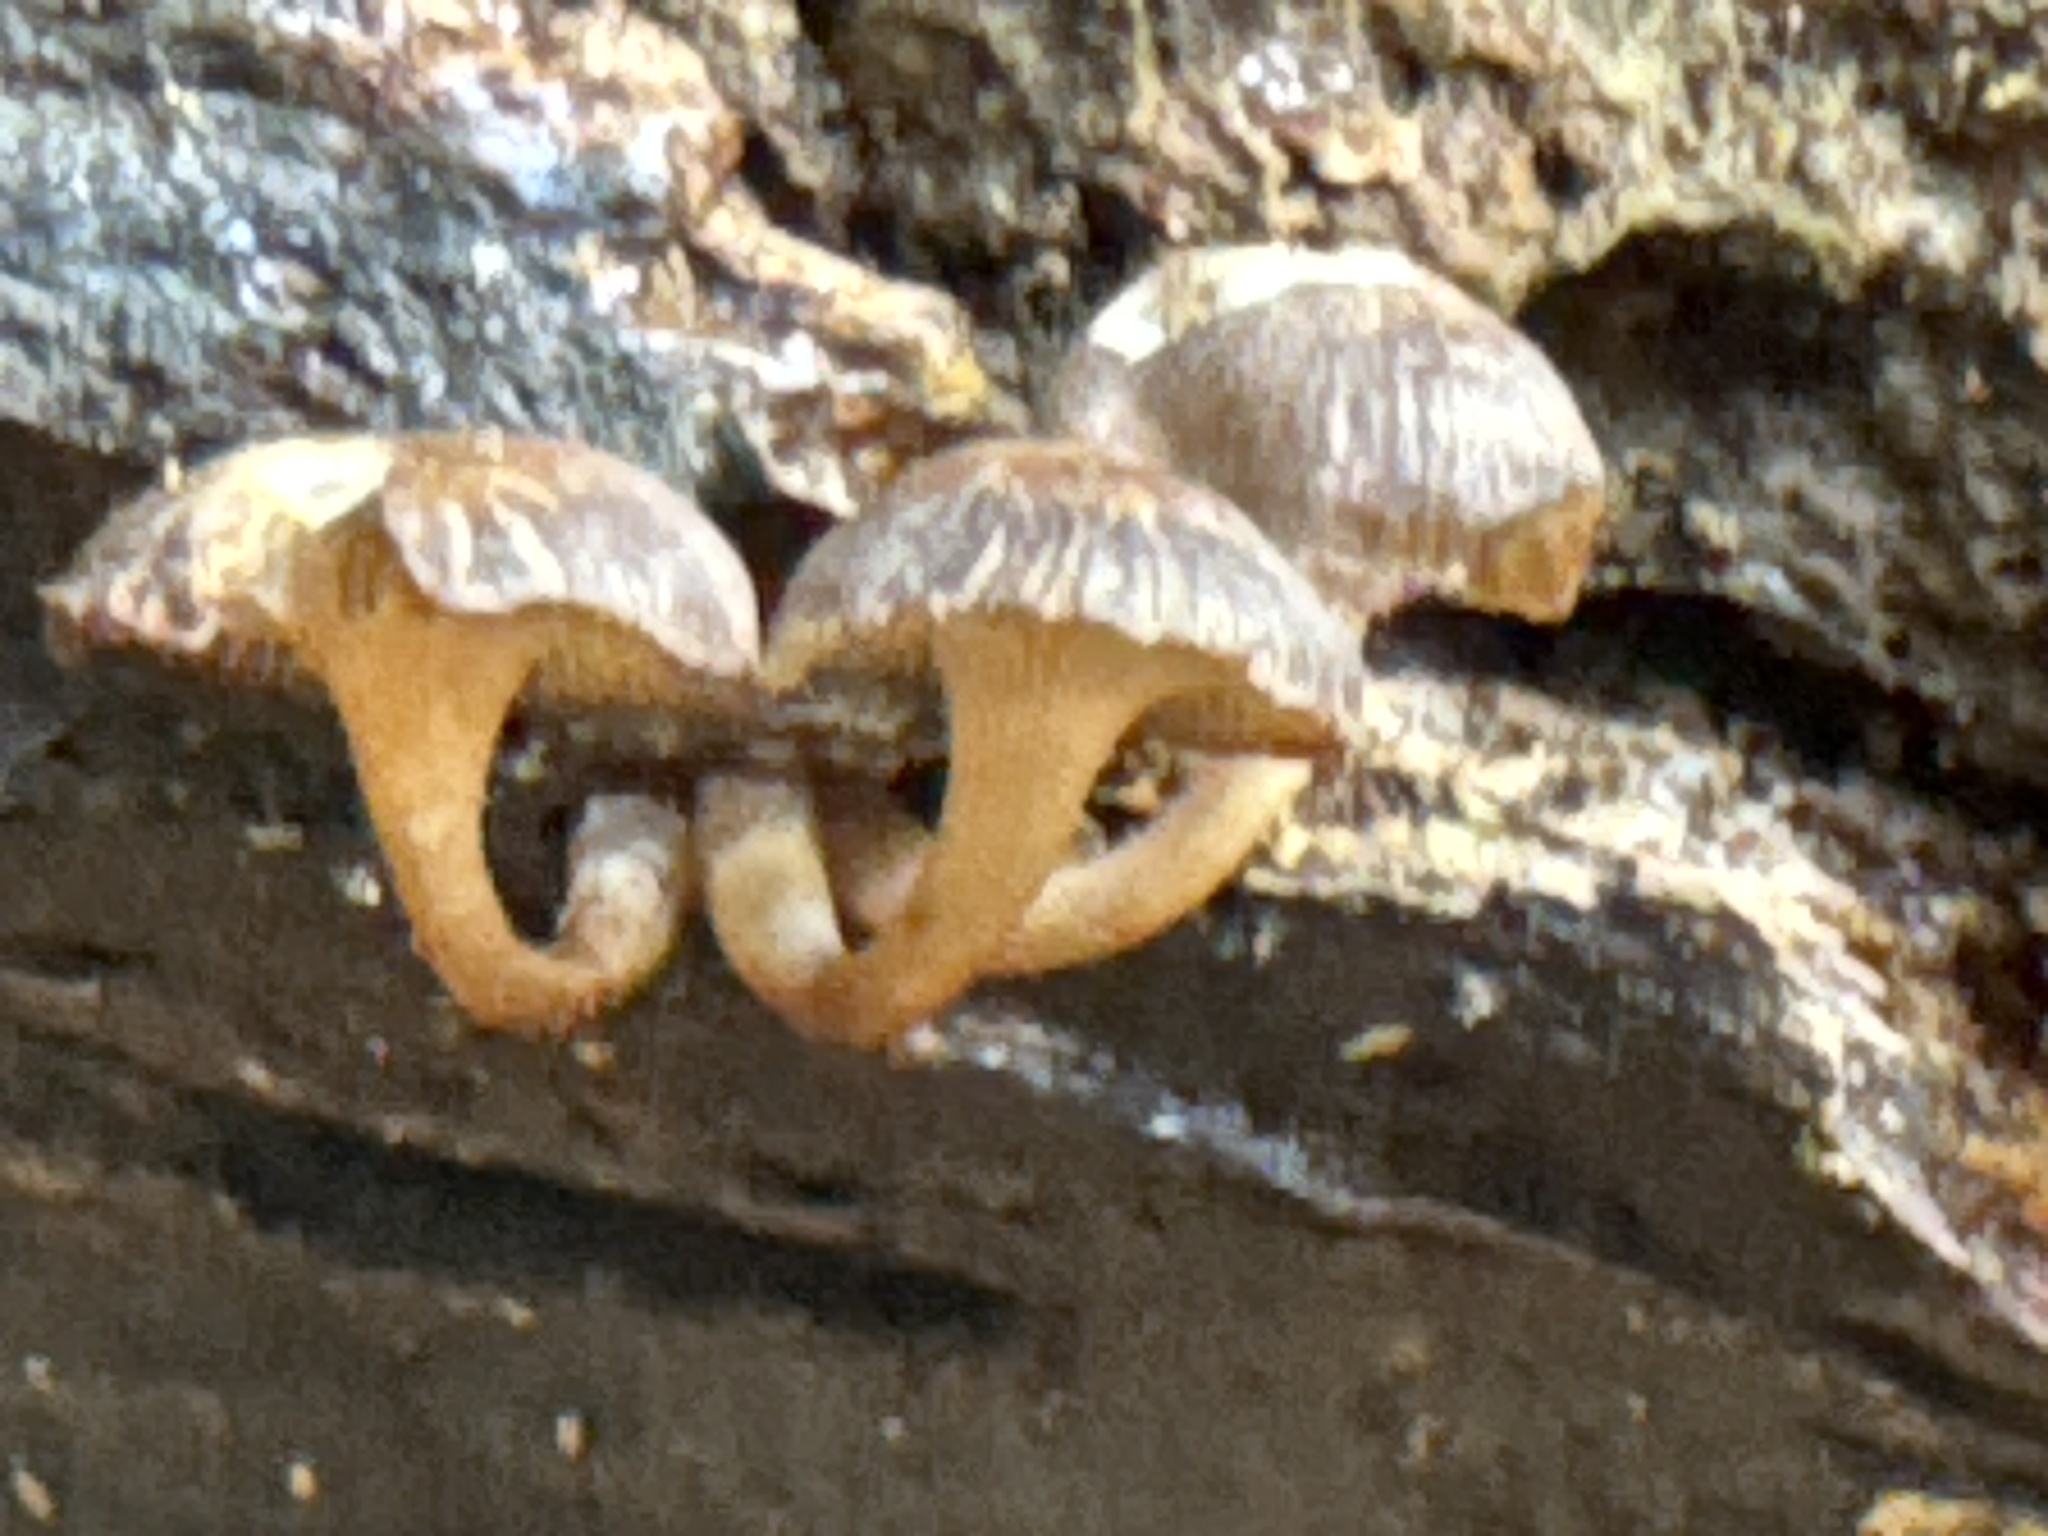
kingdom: Fungi
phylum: Basidiomycota
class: Agaricomycetes
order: Agaricales
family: Mycenaceae
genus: Mycena
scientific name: Mycena overholtsii
